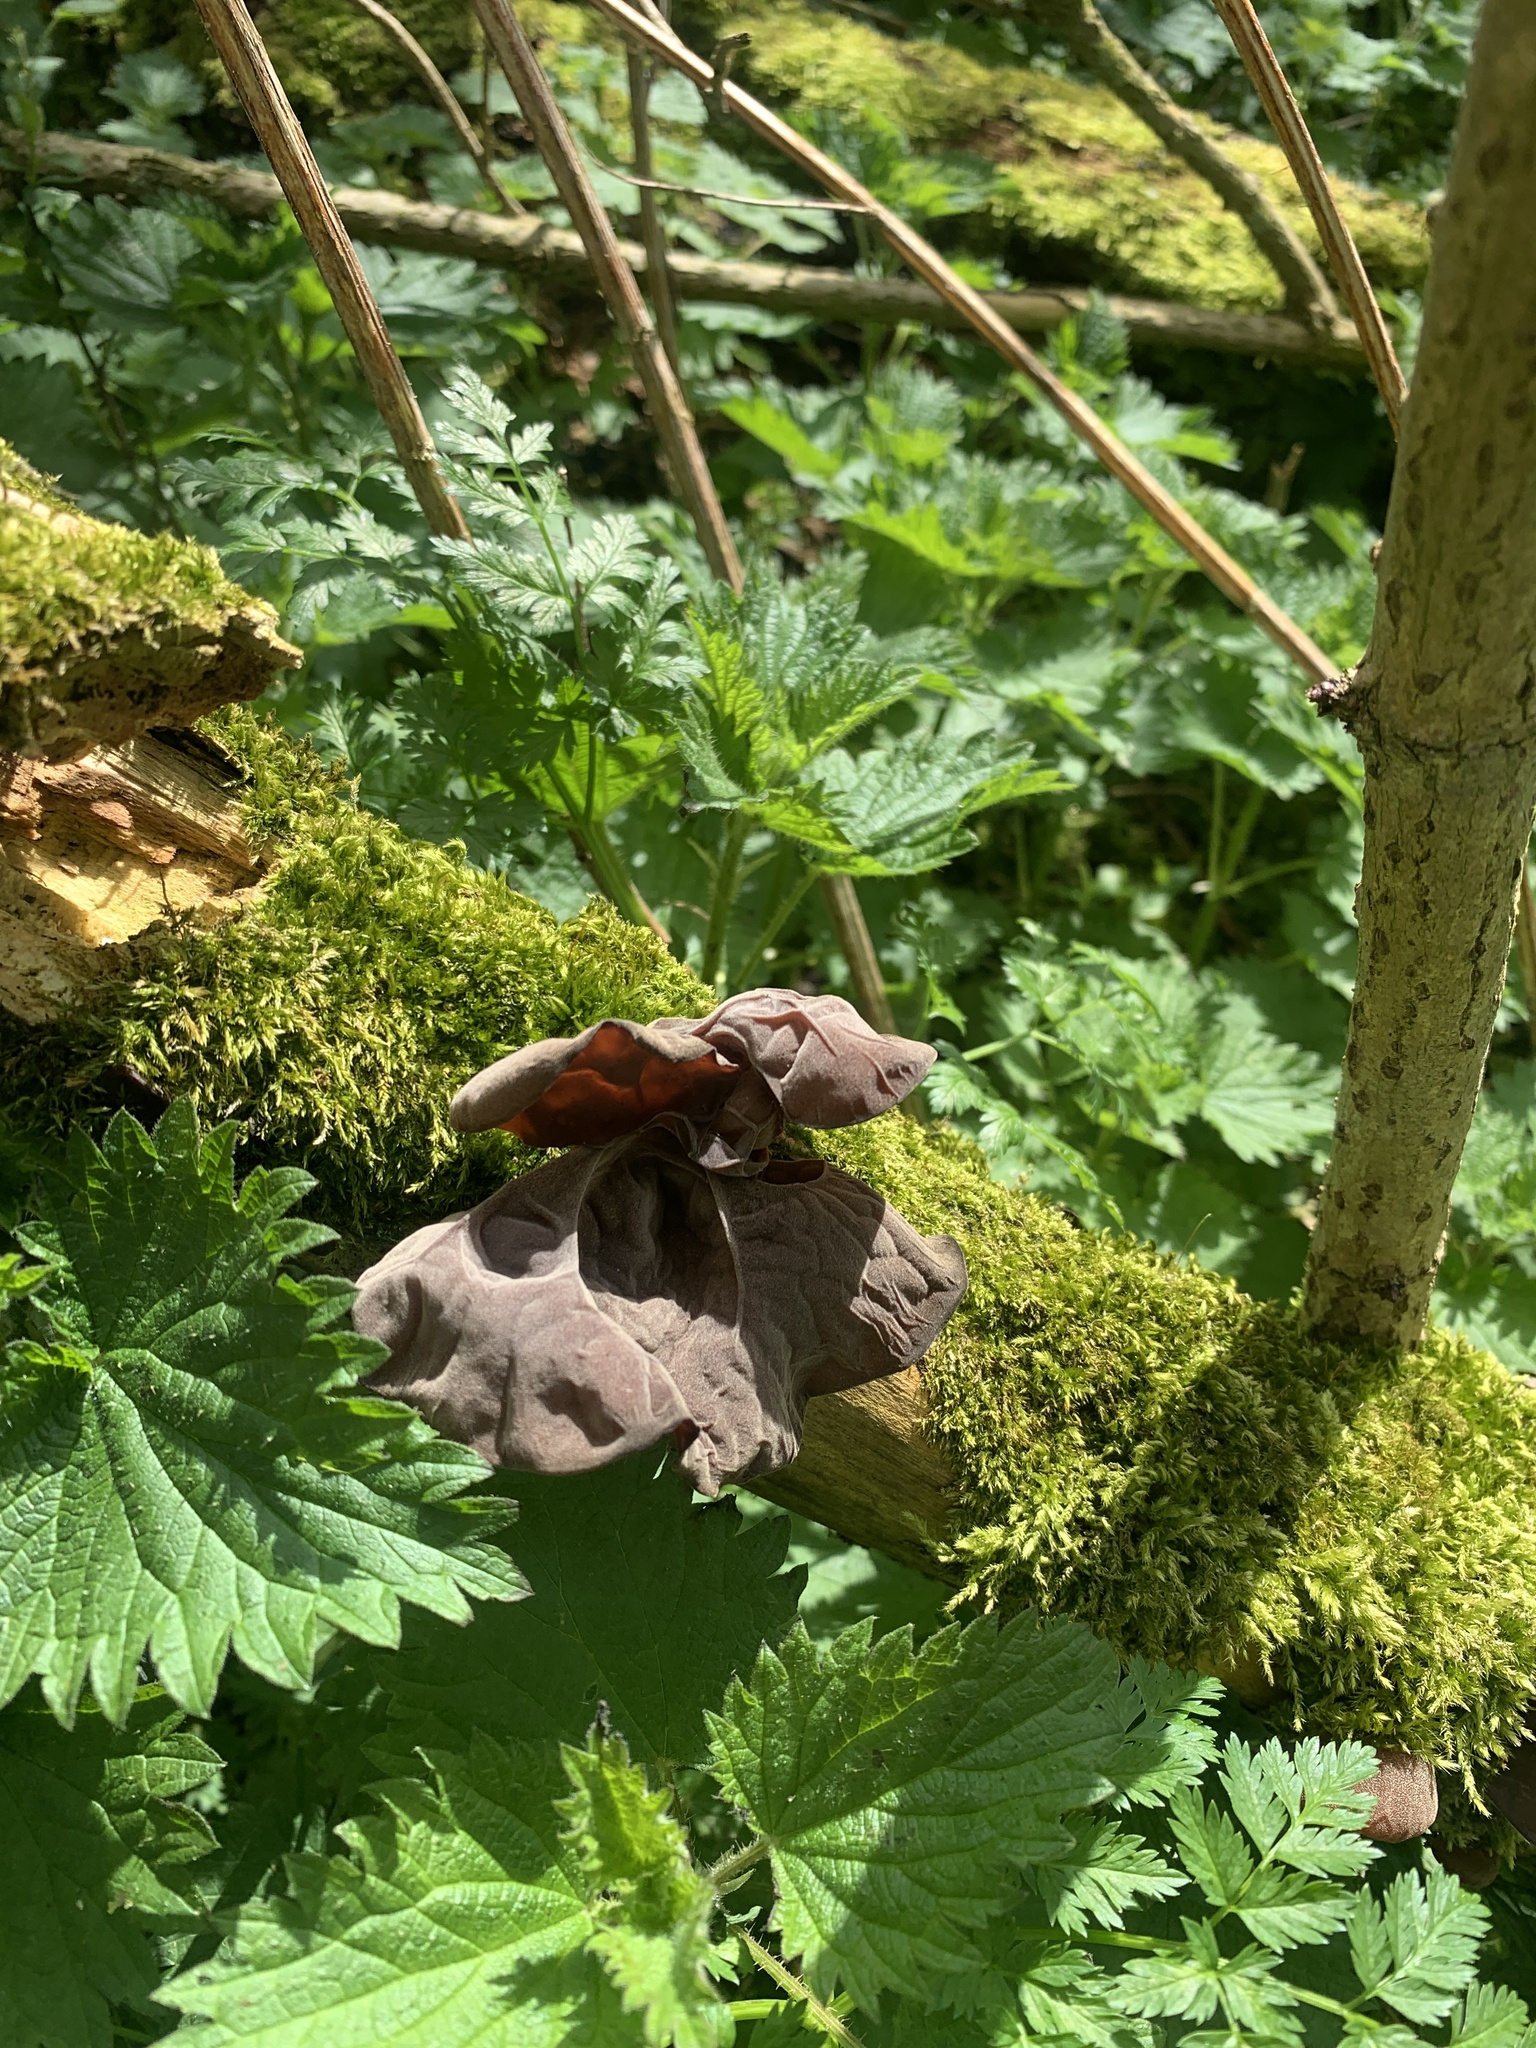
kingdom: Fungi
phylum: Basidiomycota
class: Agaricomycetes
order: Auriculariales
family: Auriculariaceae
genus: Auricularia
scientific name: Auricularia auricula-judae
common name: Jelly ear
